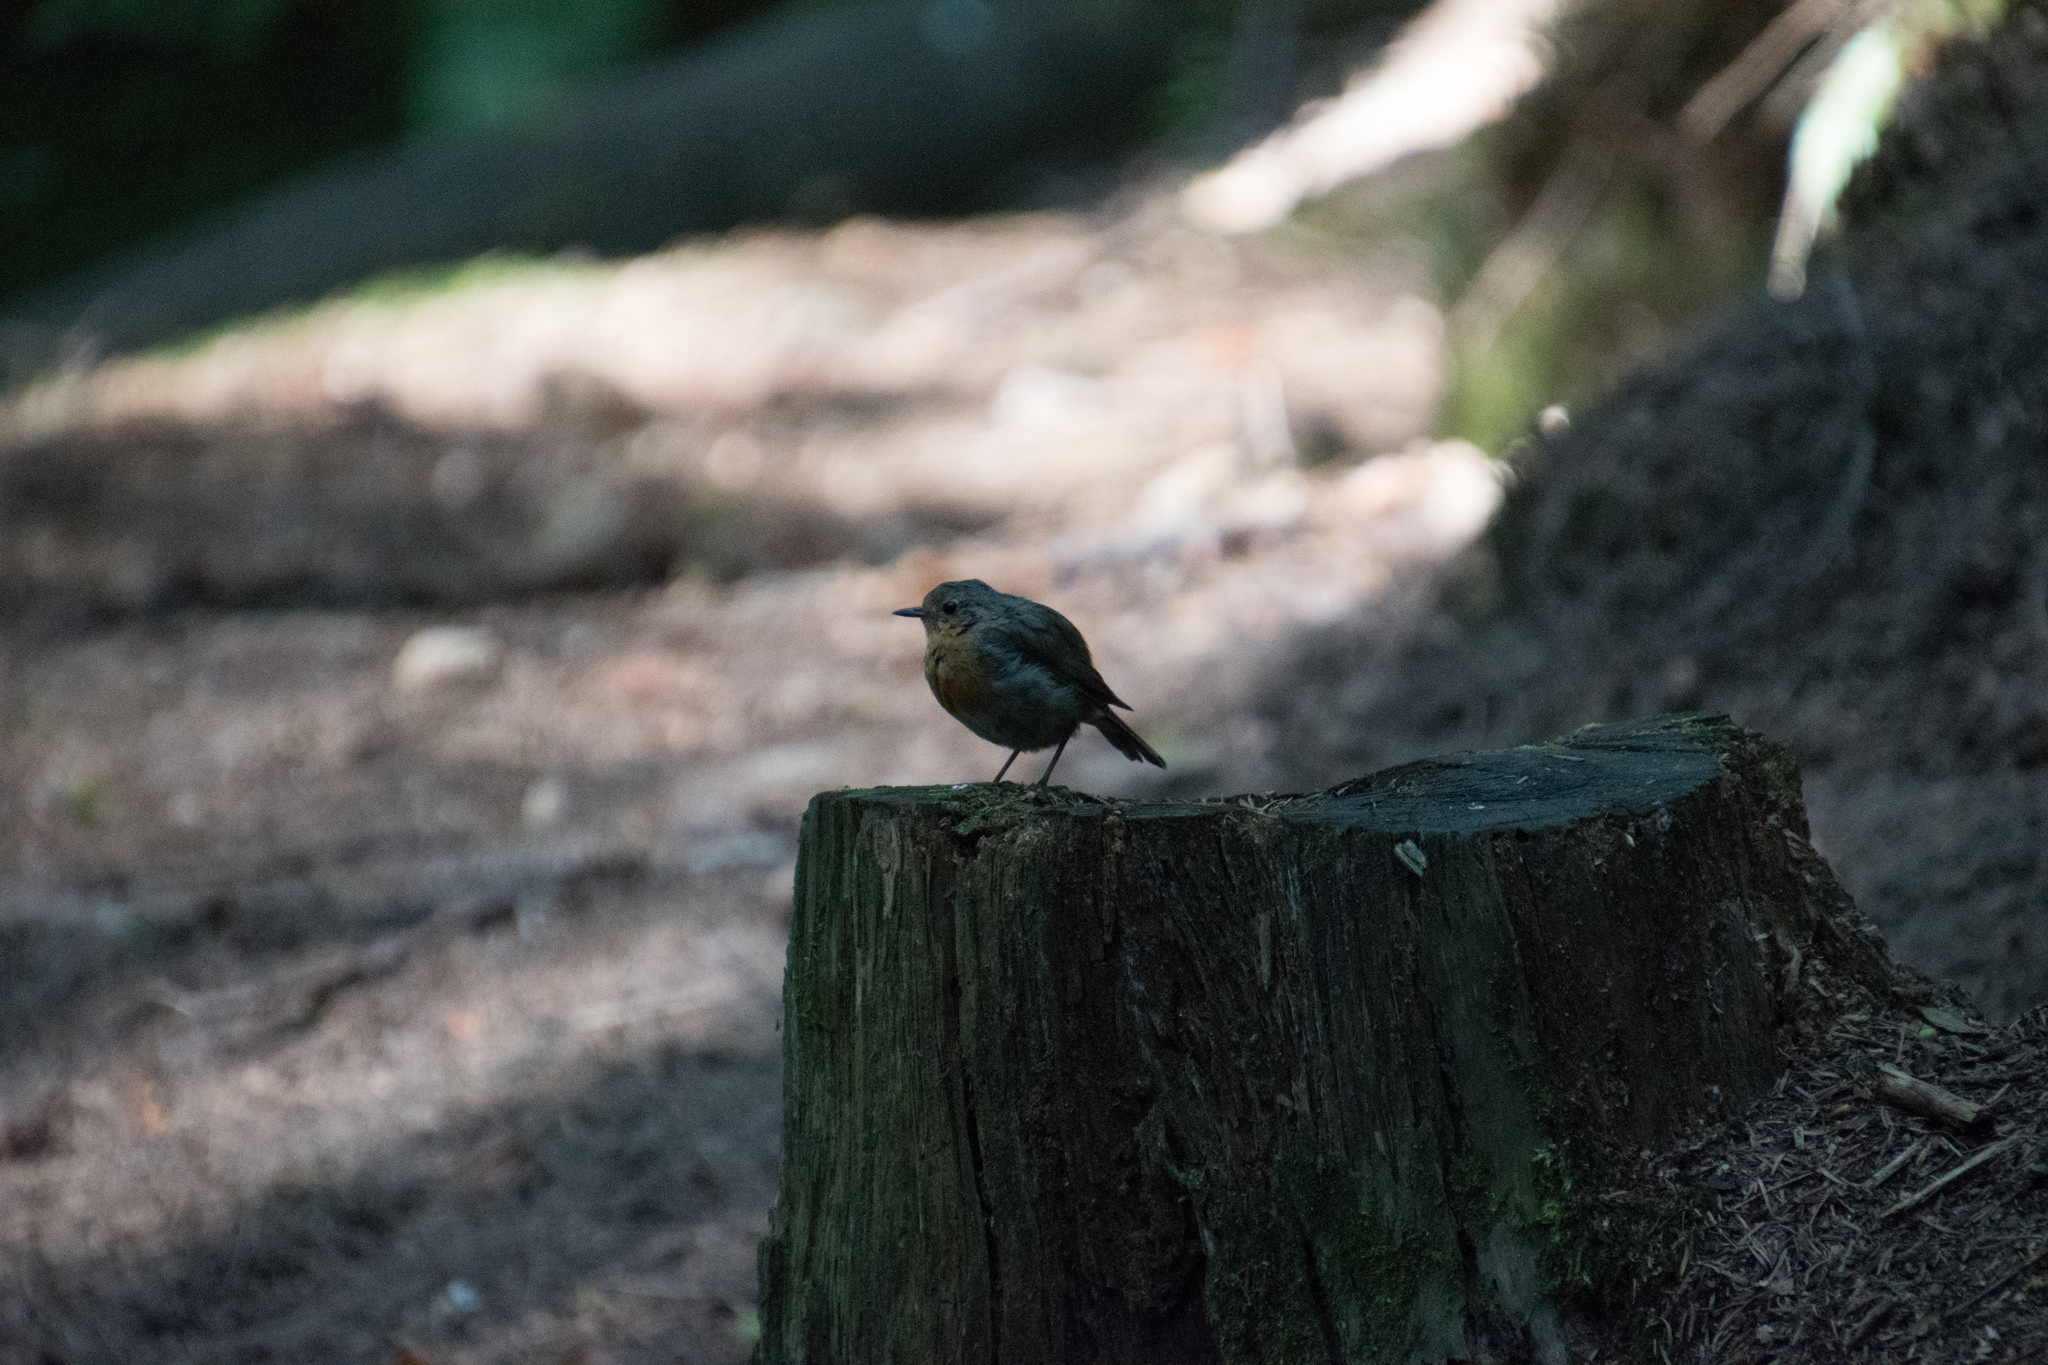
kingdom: Animalia
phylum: Chordata
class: Aves
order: Passeriformes
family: Muscicapidae
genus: Erithacus
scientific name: Erithacus rubecula
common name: European robin
